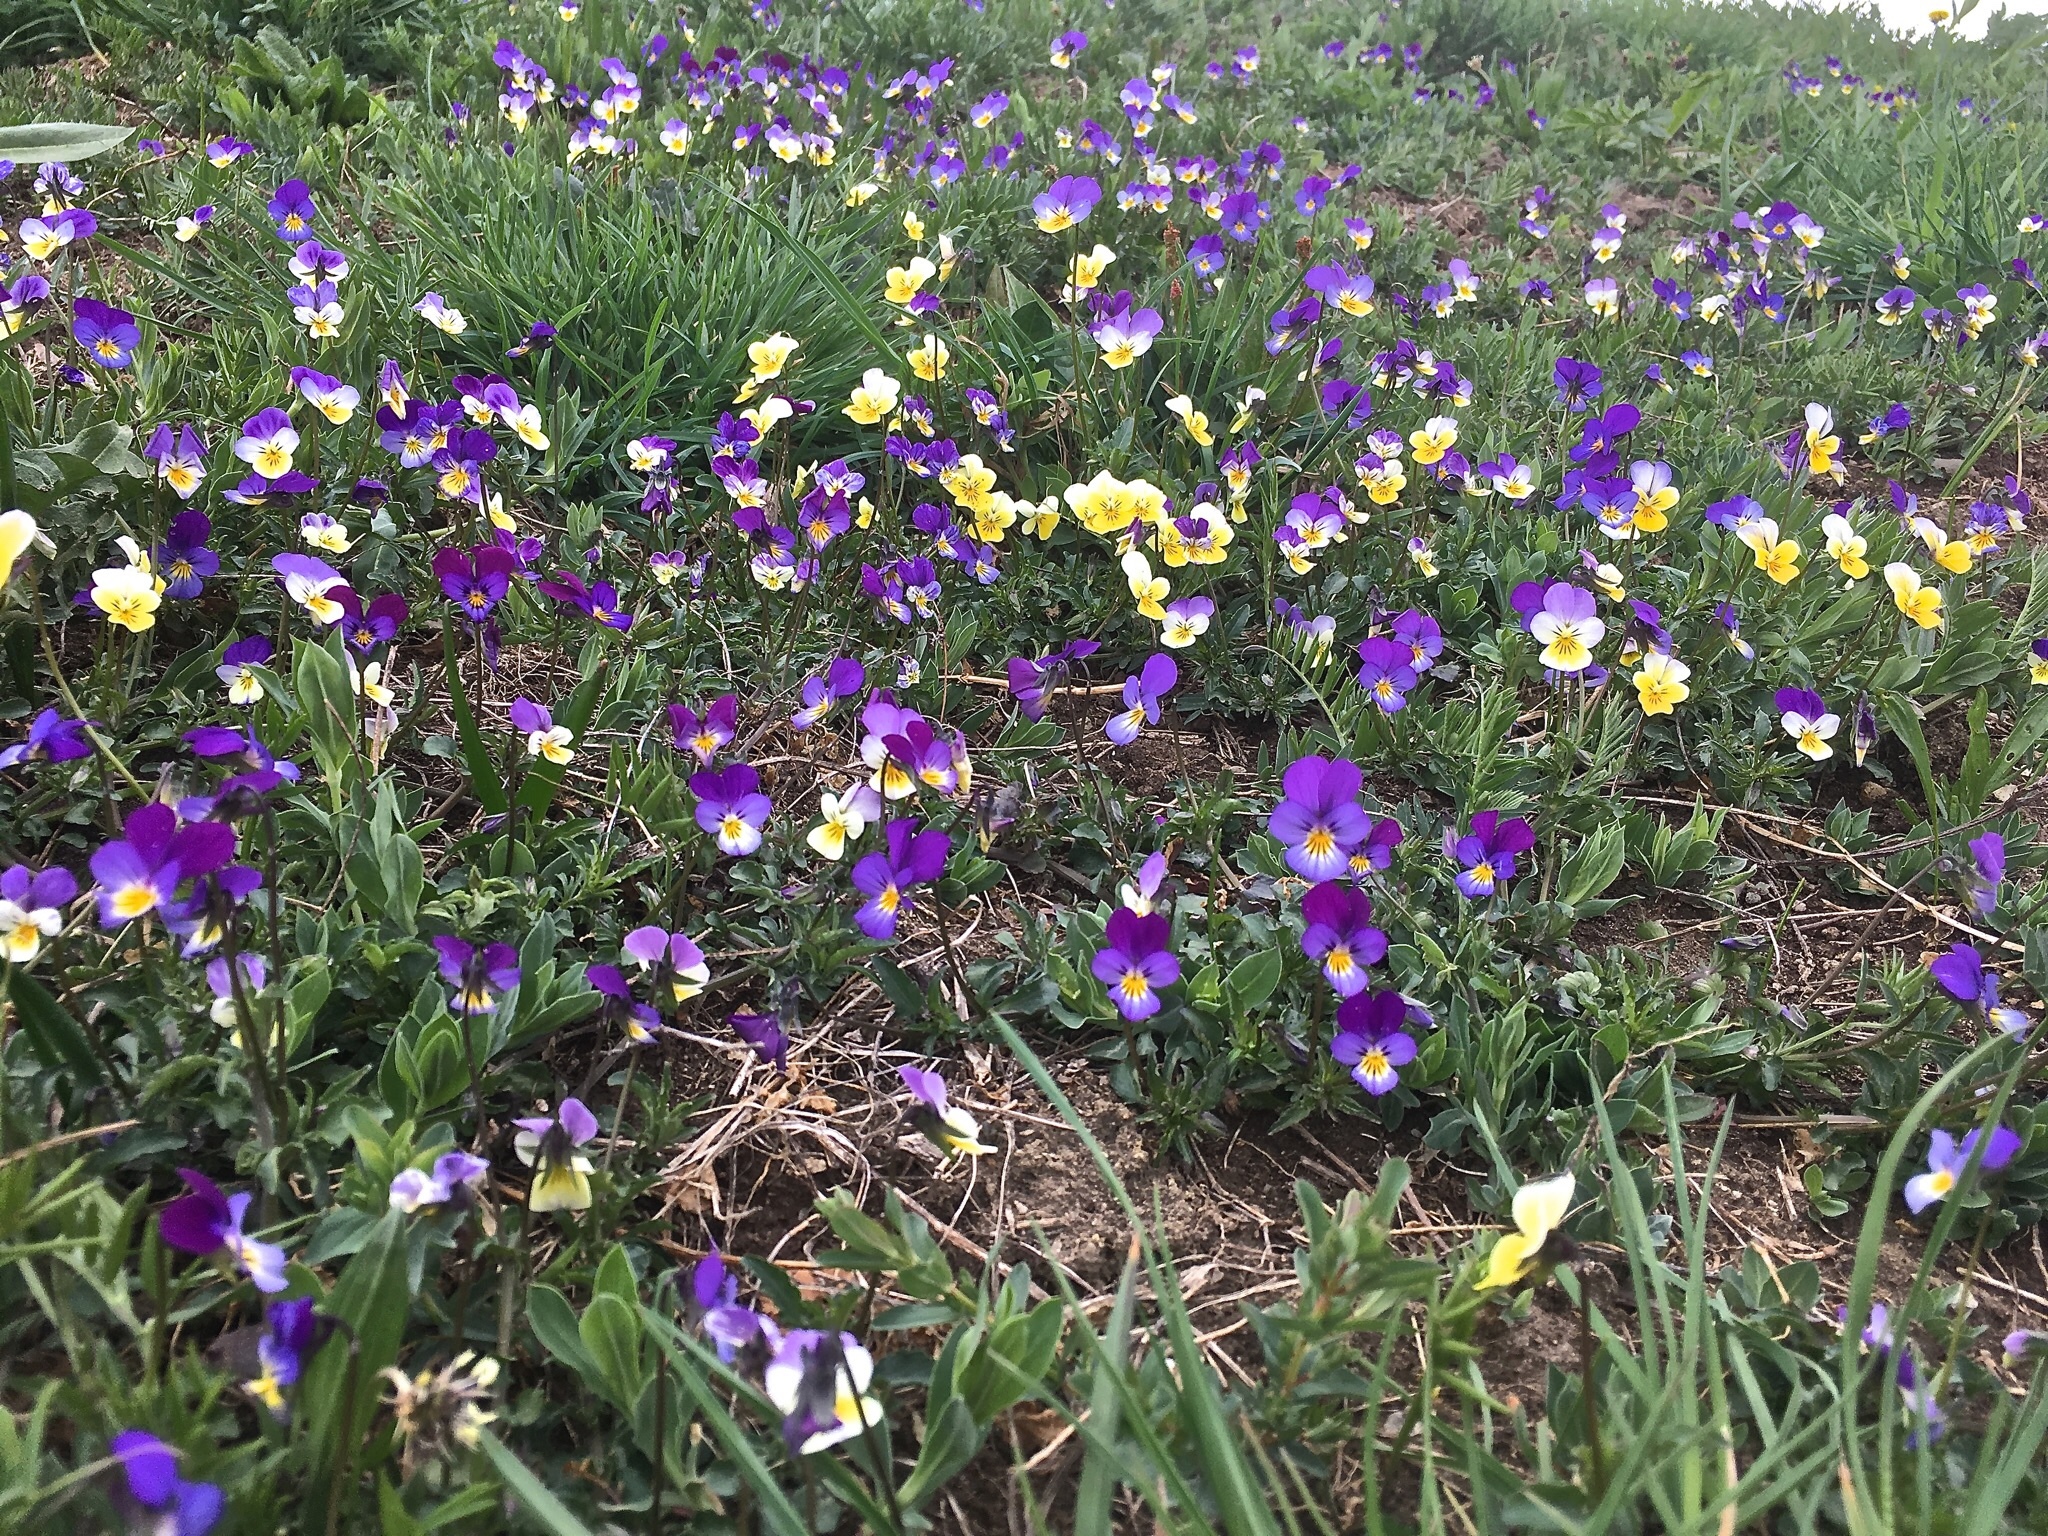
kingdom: Plantae
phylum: Tracheophyta
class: Magnoliopsida
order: Malpighiales
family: Violaceae
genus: Viola
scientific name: Viola tricolor
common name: Pansy
